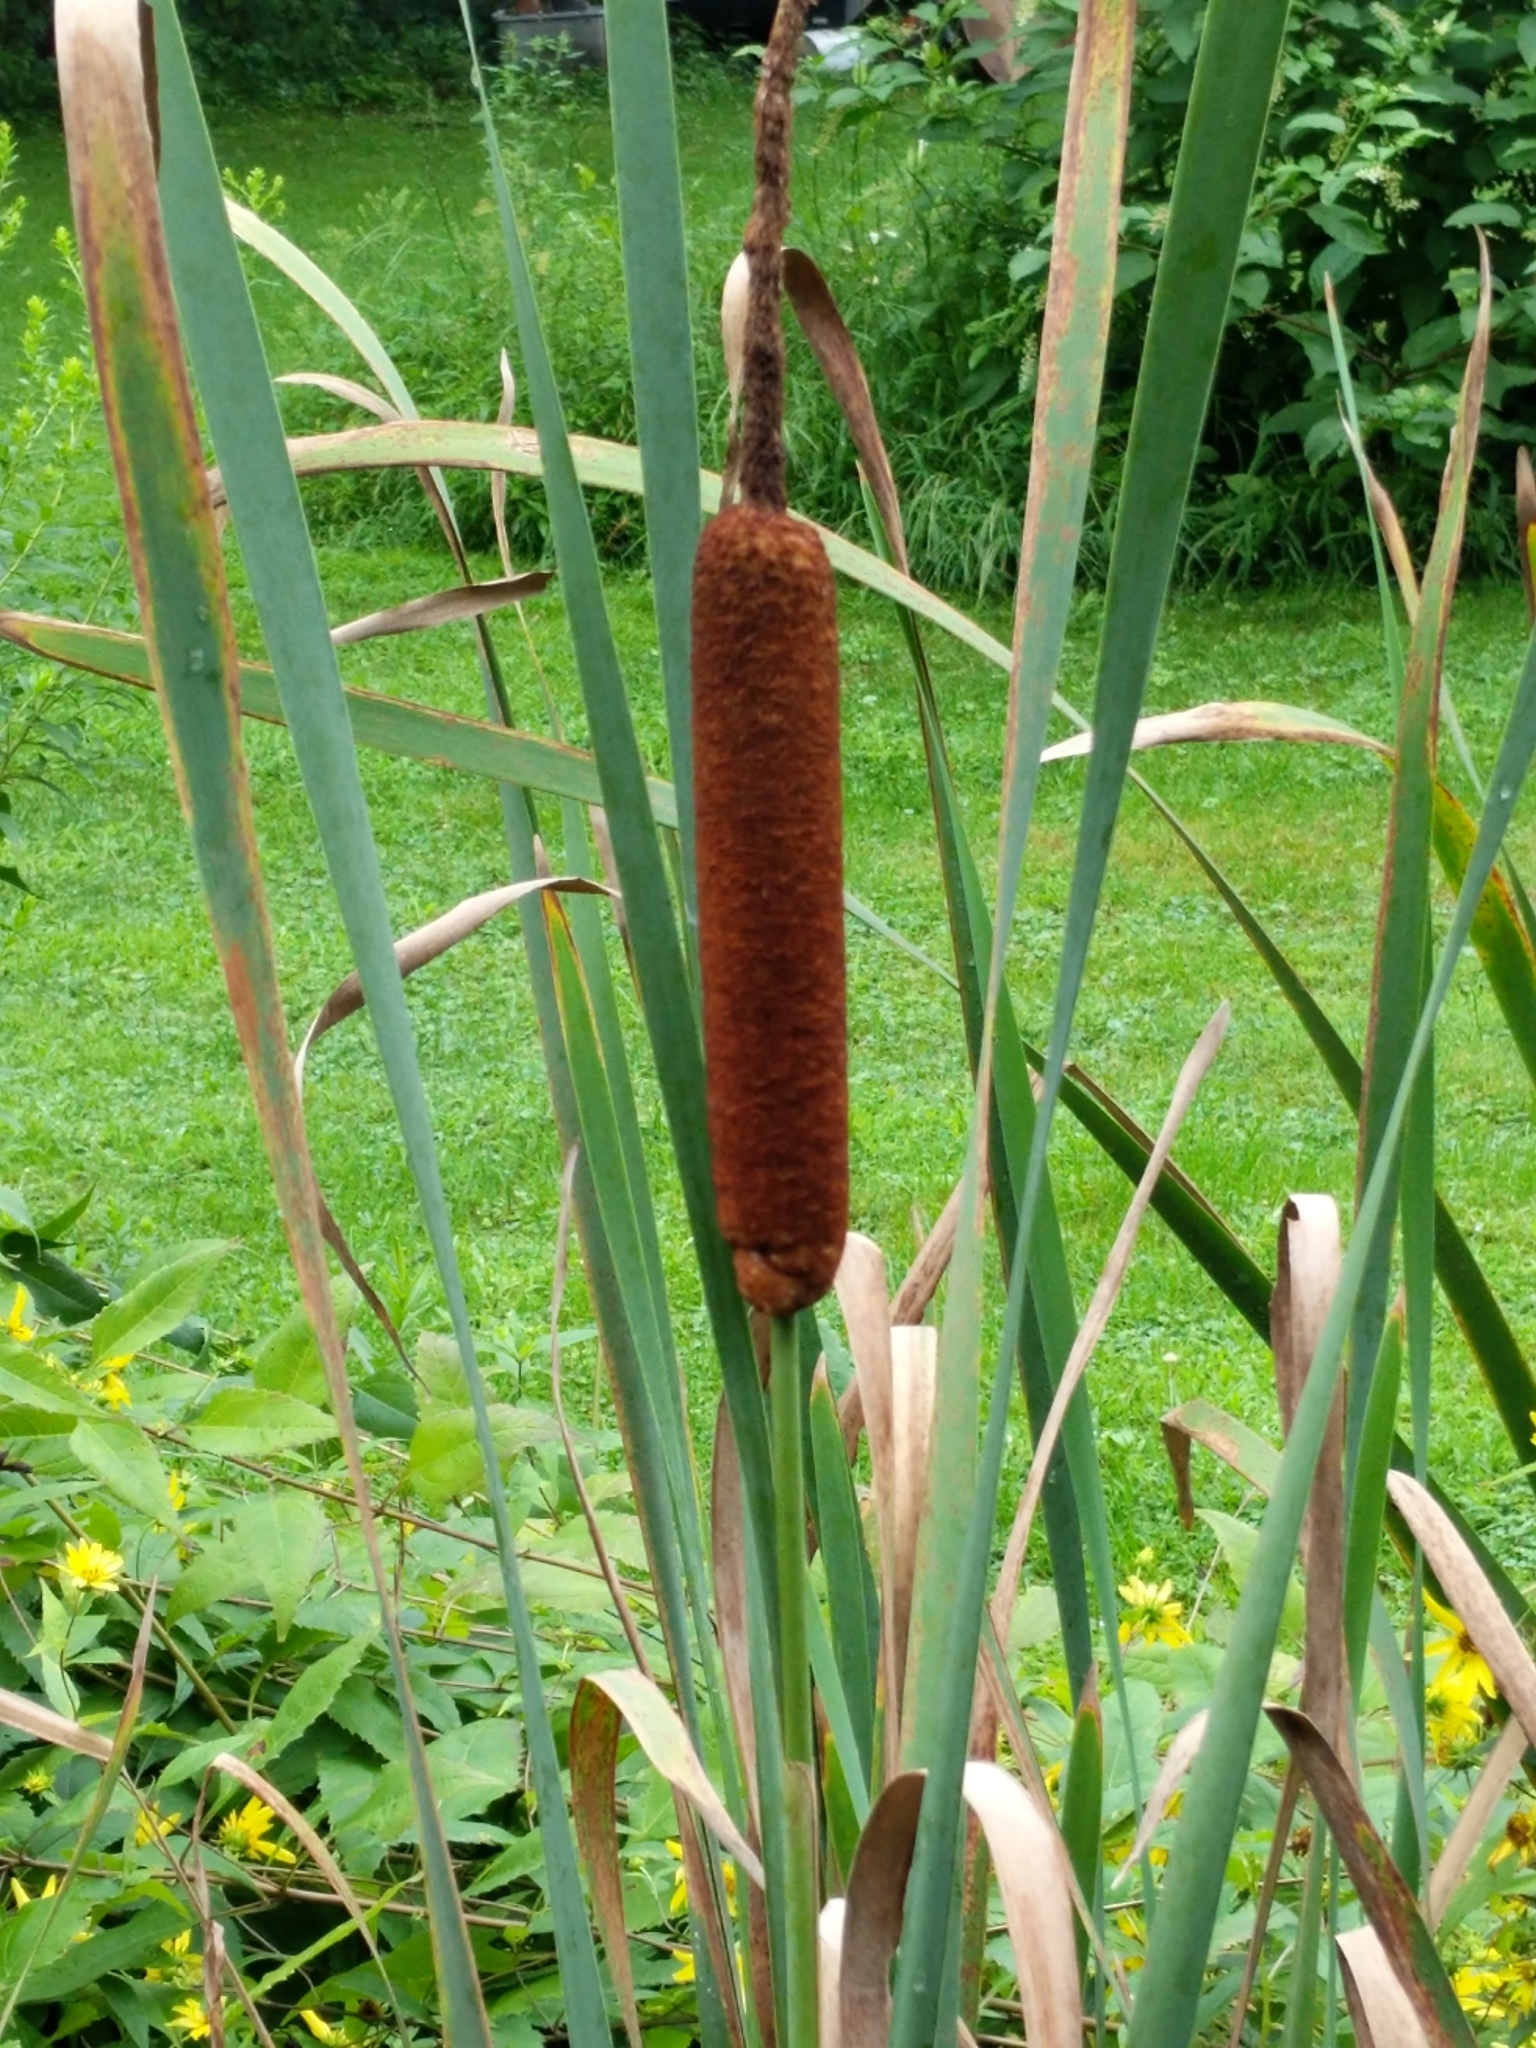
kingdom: Plantae
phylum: Tracheophyta
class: Liliopsida
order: Poales
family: Typhaceae
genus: Typha
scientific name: Typha latifolia
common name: Broadleaf cattail
